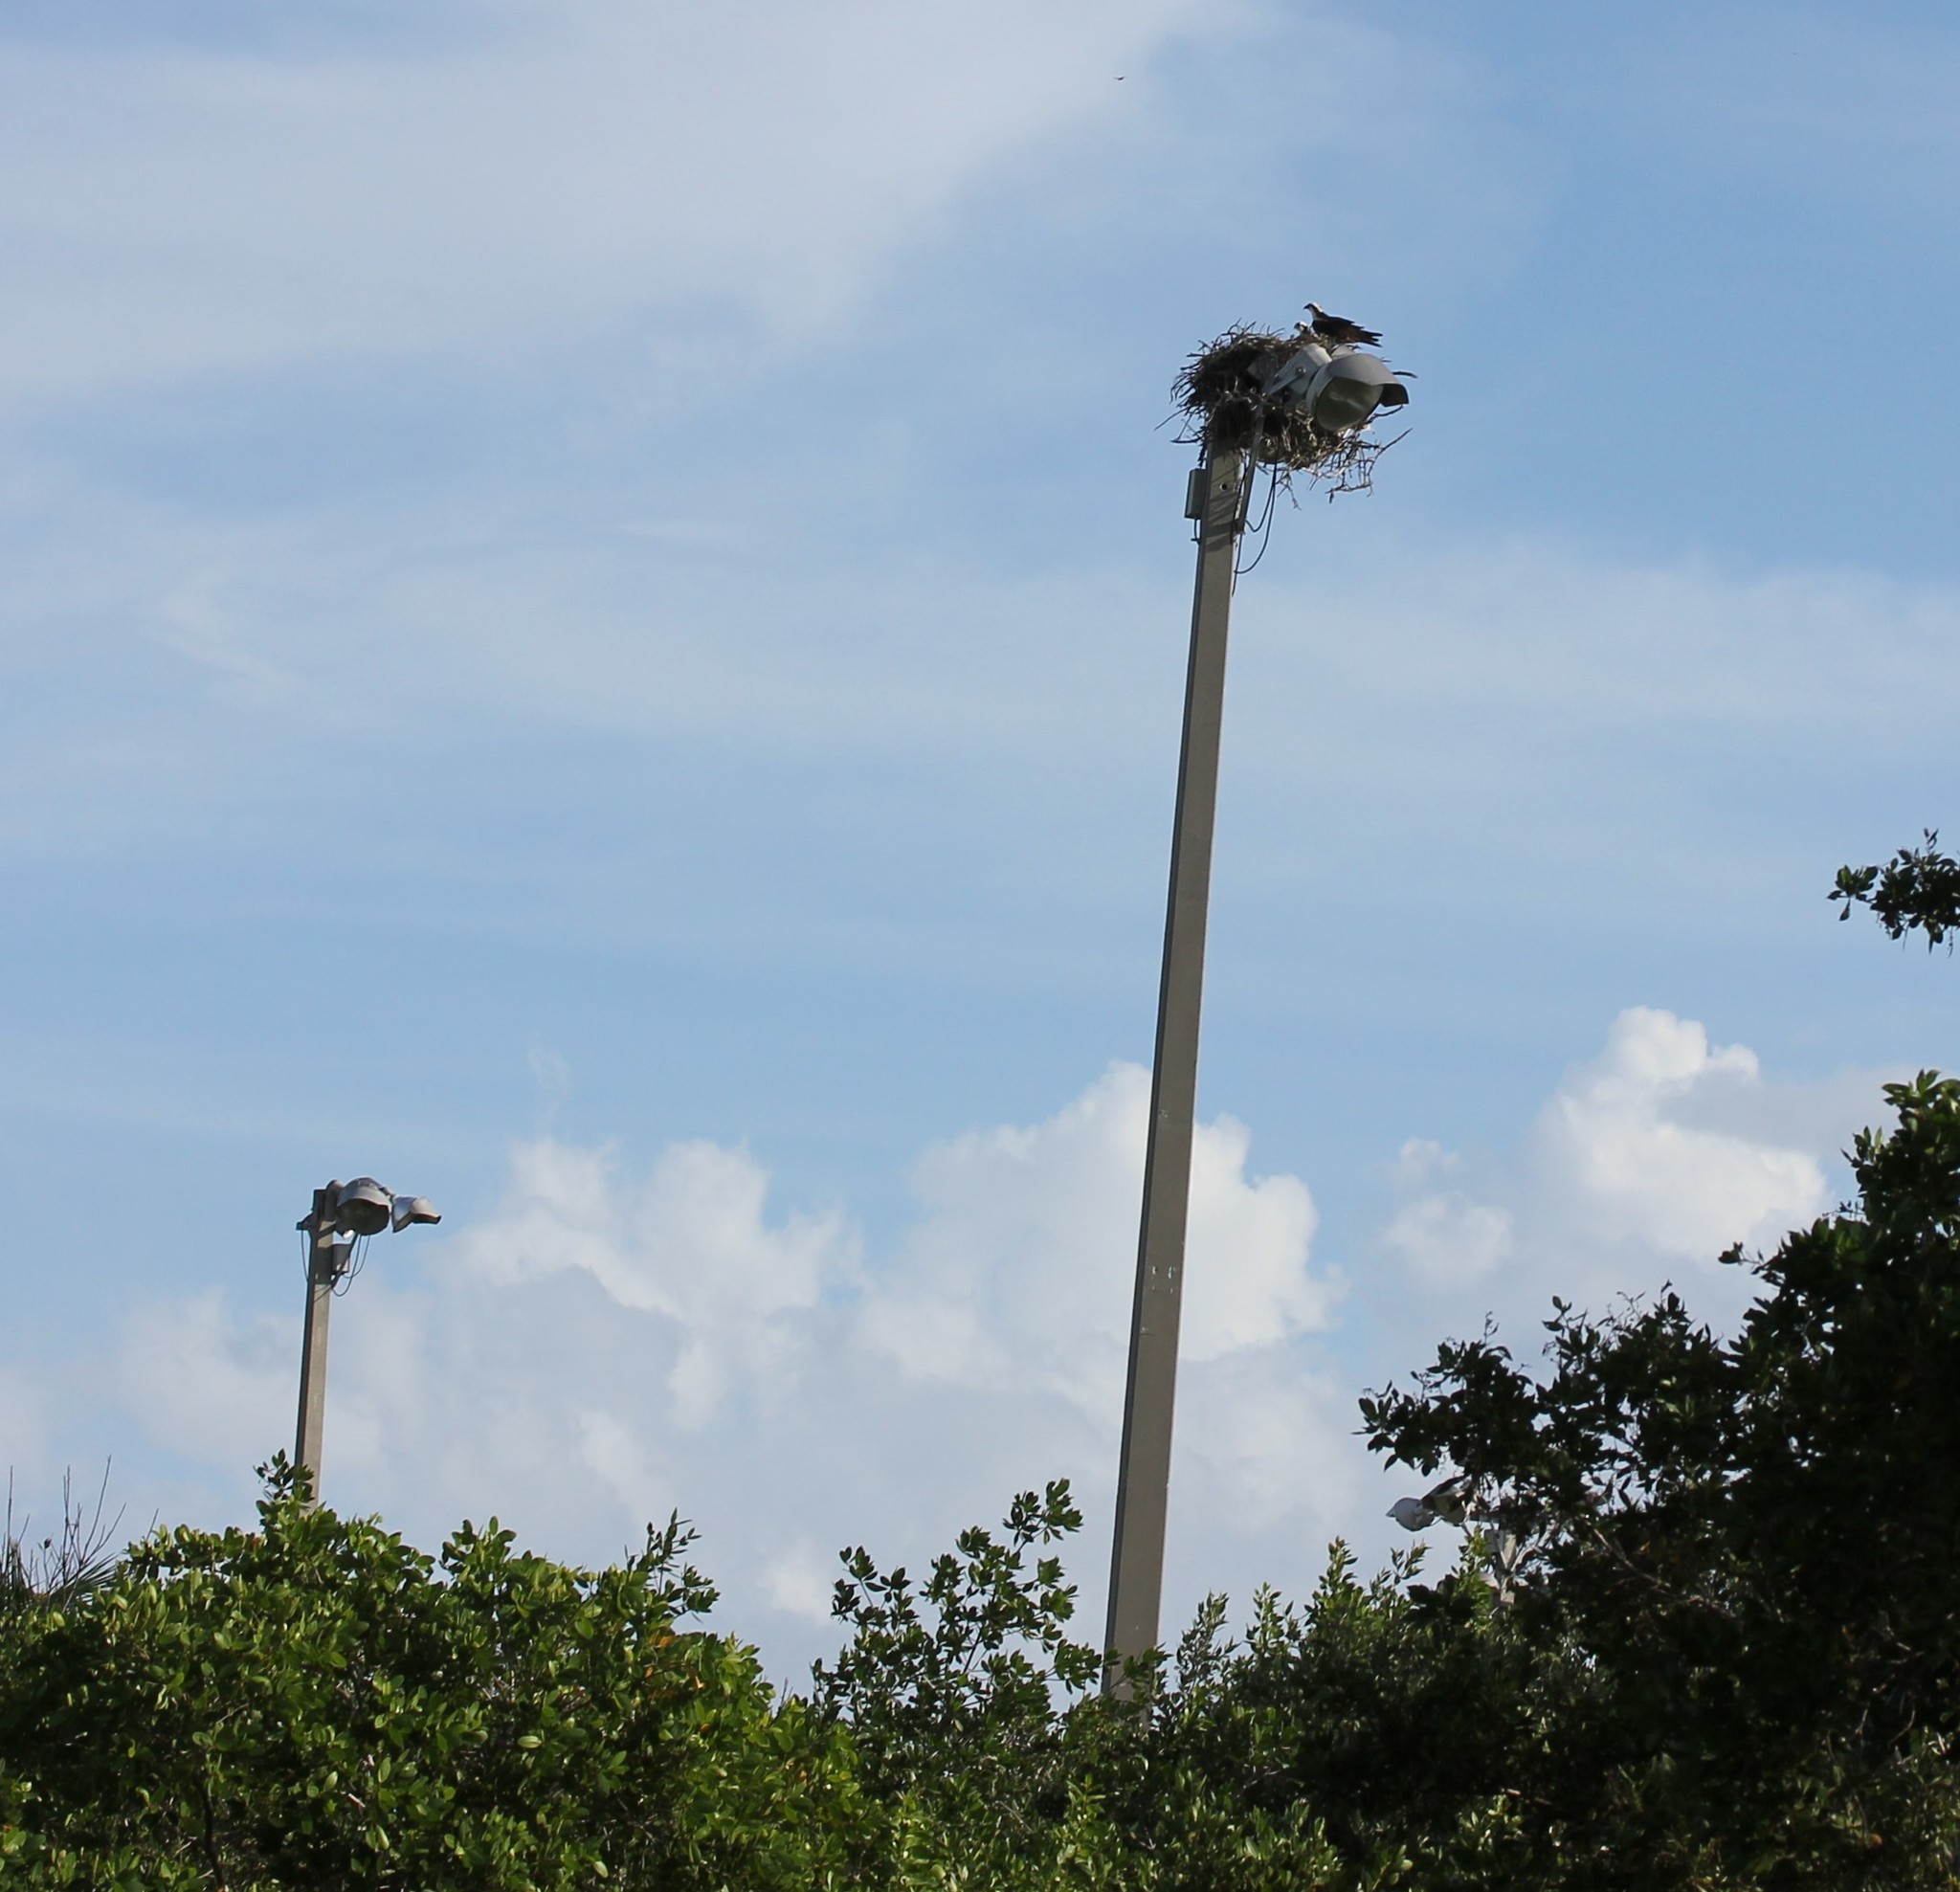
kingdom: Animalia
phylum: Chordata
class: Aves
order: Accipitriformes
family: Pandionidae
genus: Pandion
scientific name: Pandion haliaetus
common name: Osprey
